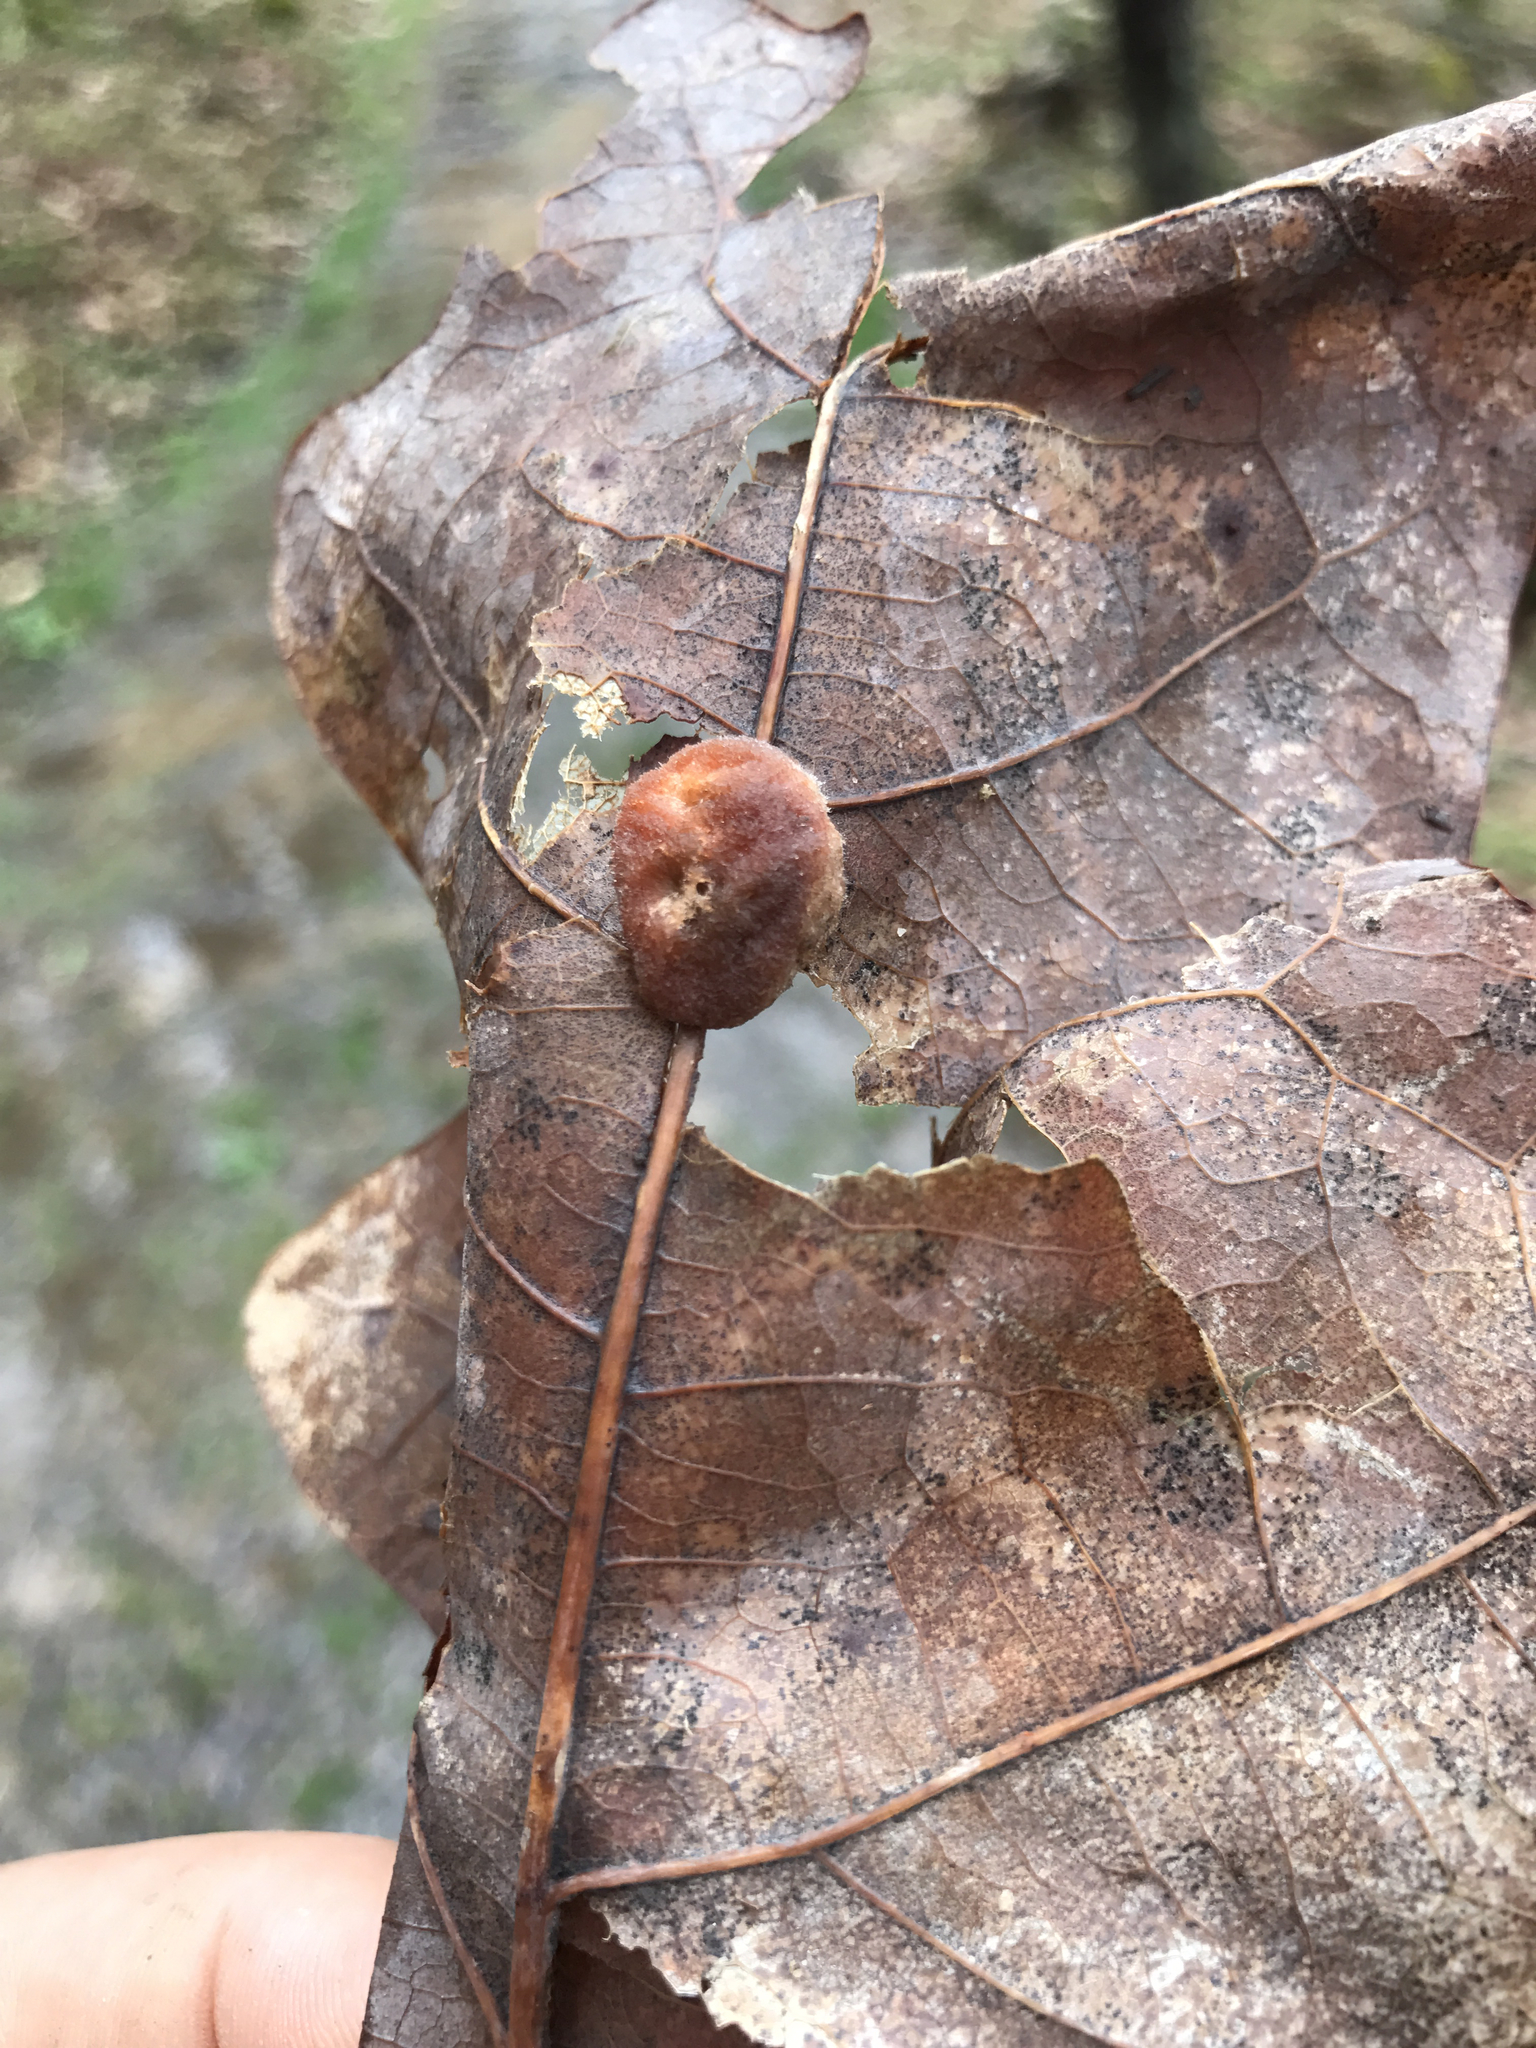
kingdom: Animalia
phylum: Arthropoda
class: Insecta
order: Hymenoptera
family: Cynipidae
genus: Andricus
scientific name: Andricus quercusflocci
